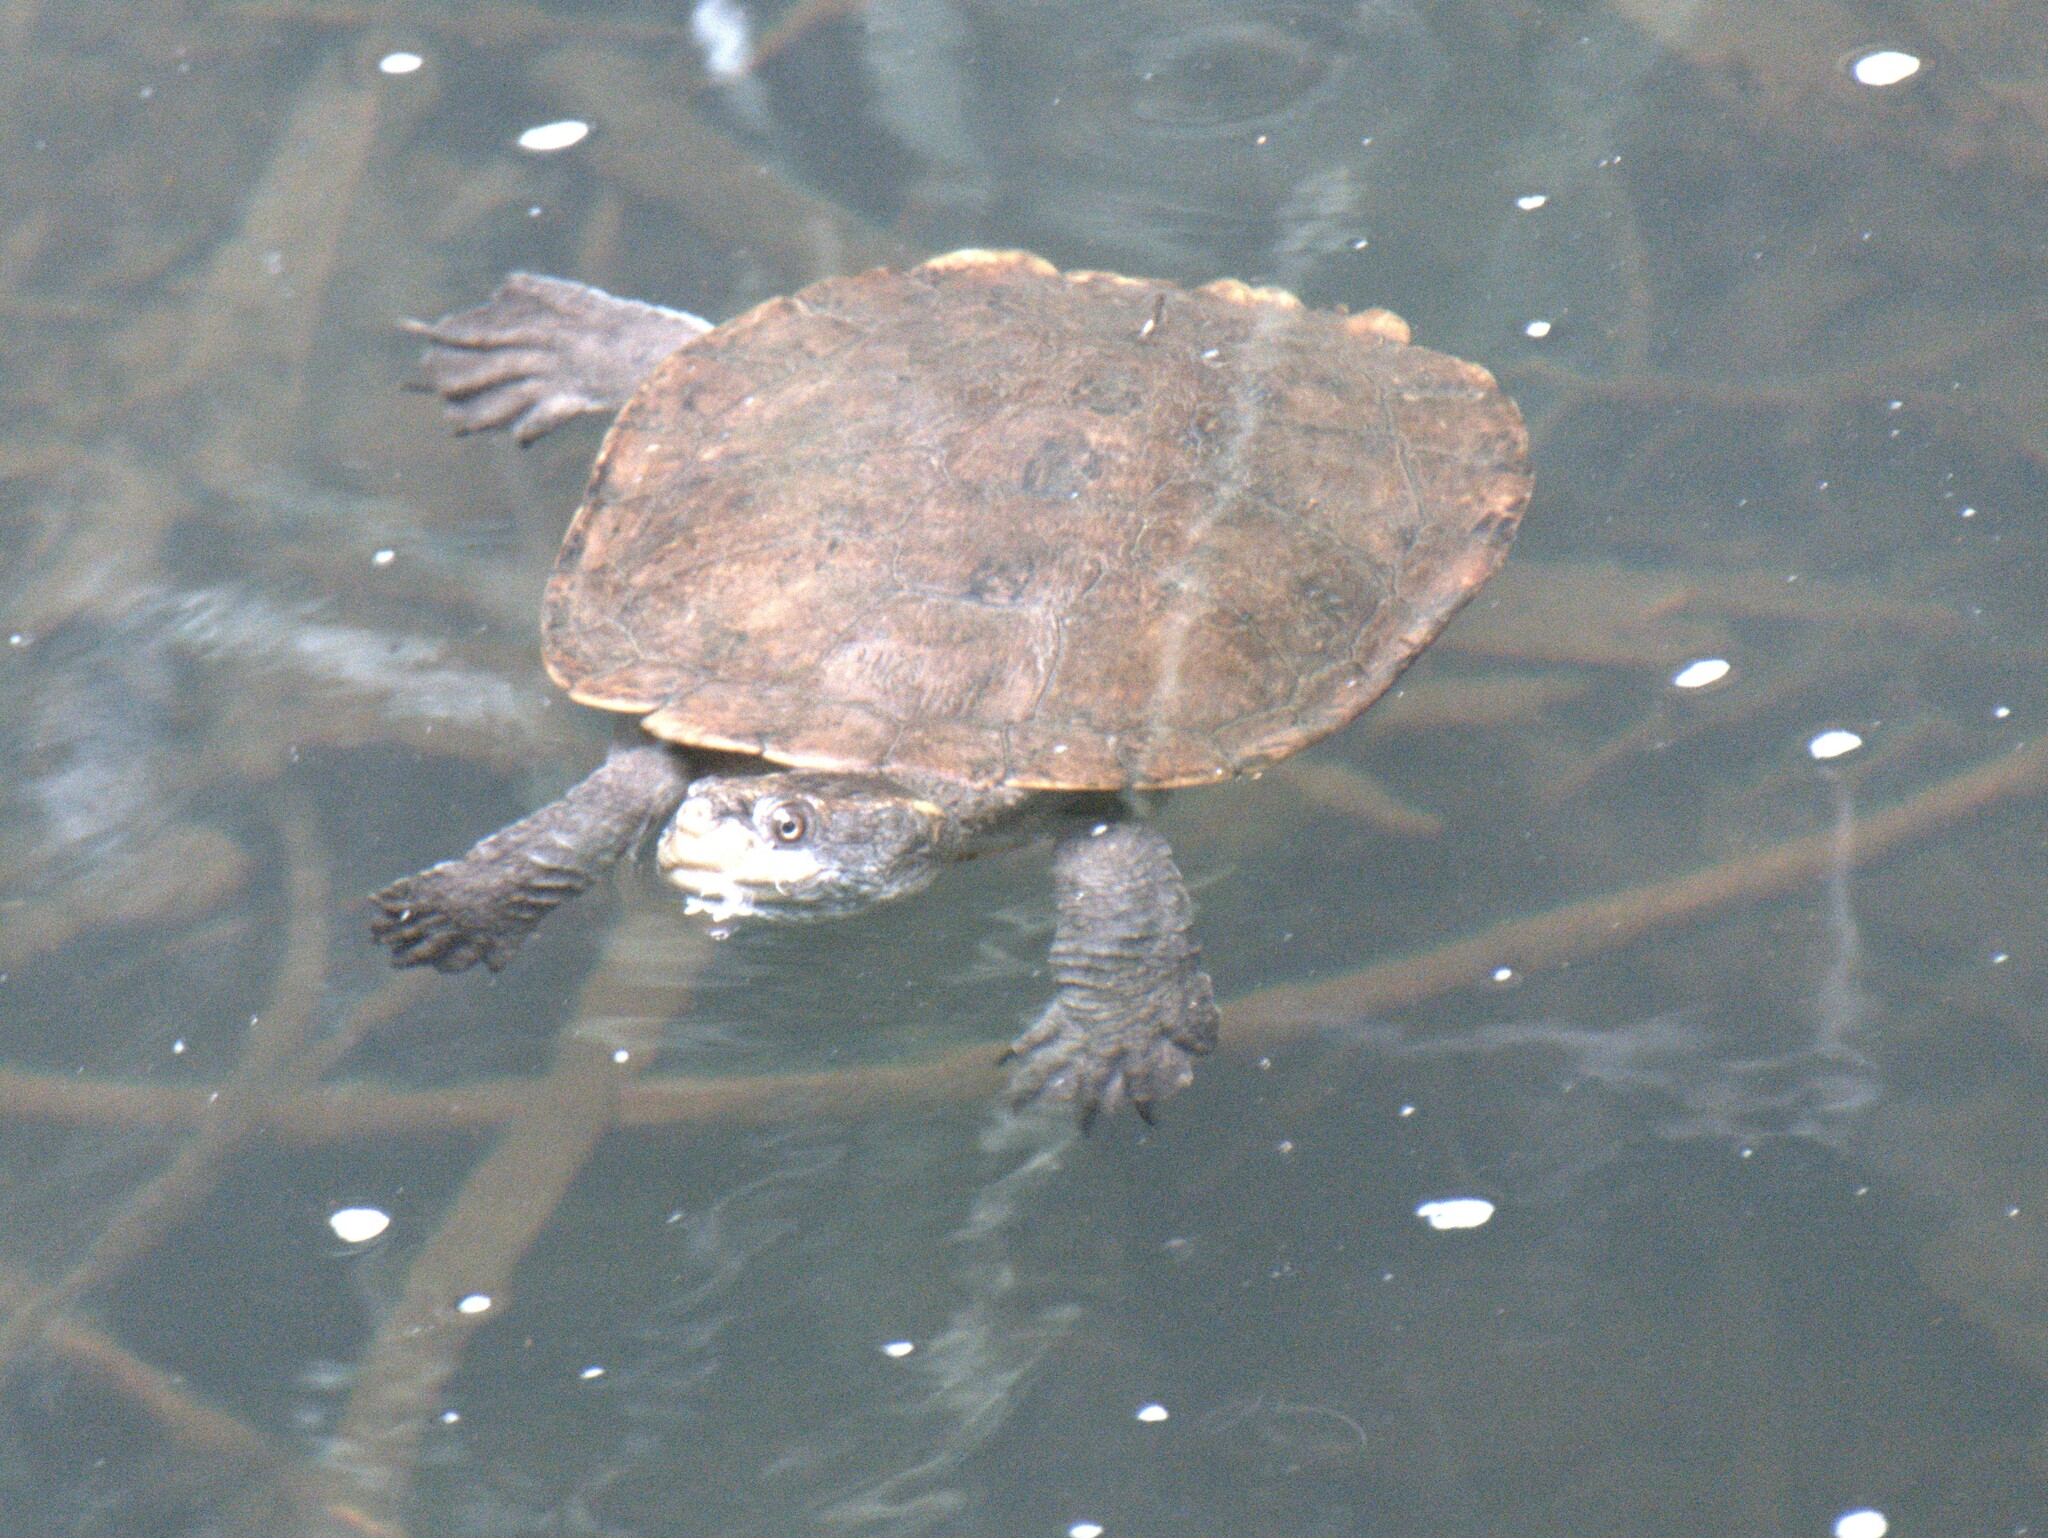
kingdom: Animalia
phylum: Chordata
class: Testudines
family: Chelidae
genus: Myuchelys
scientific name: Myuchelys latisternum
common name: Serrated snapping turtle
